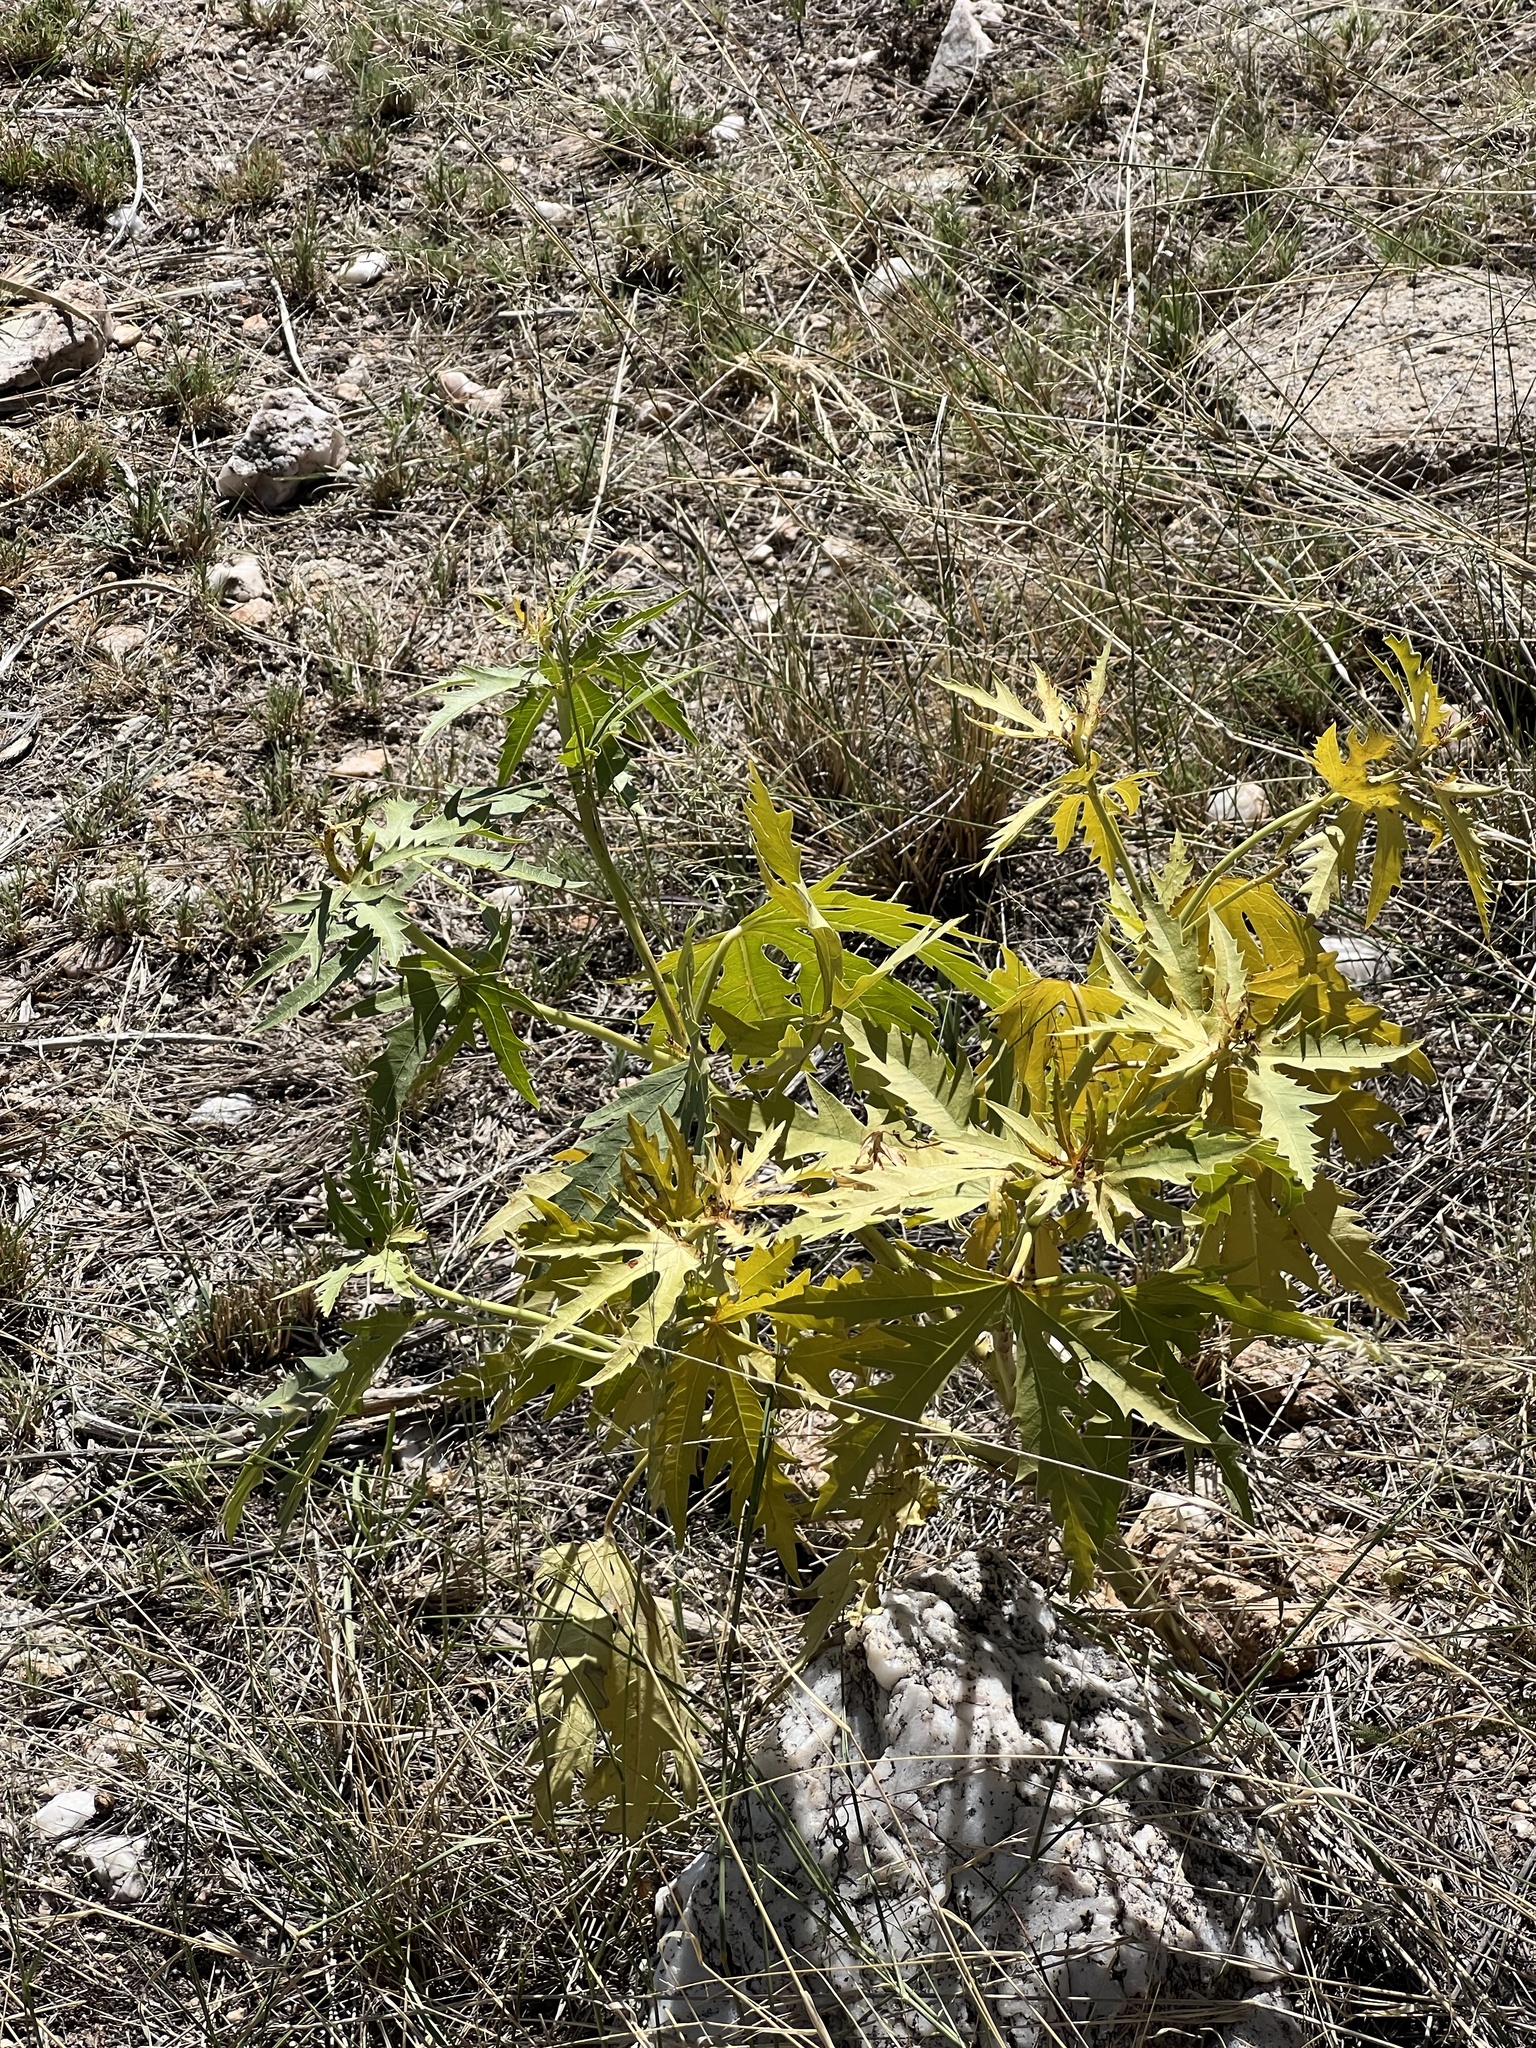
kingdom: Plantae
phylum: Tracheophyta
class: Magnoliopsida
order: Malpighiales
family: Euphorbiaceae
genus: Jatropha
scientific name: Jatropha macrorhiza
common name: Ragged nettlespurge
